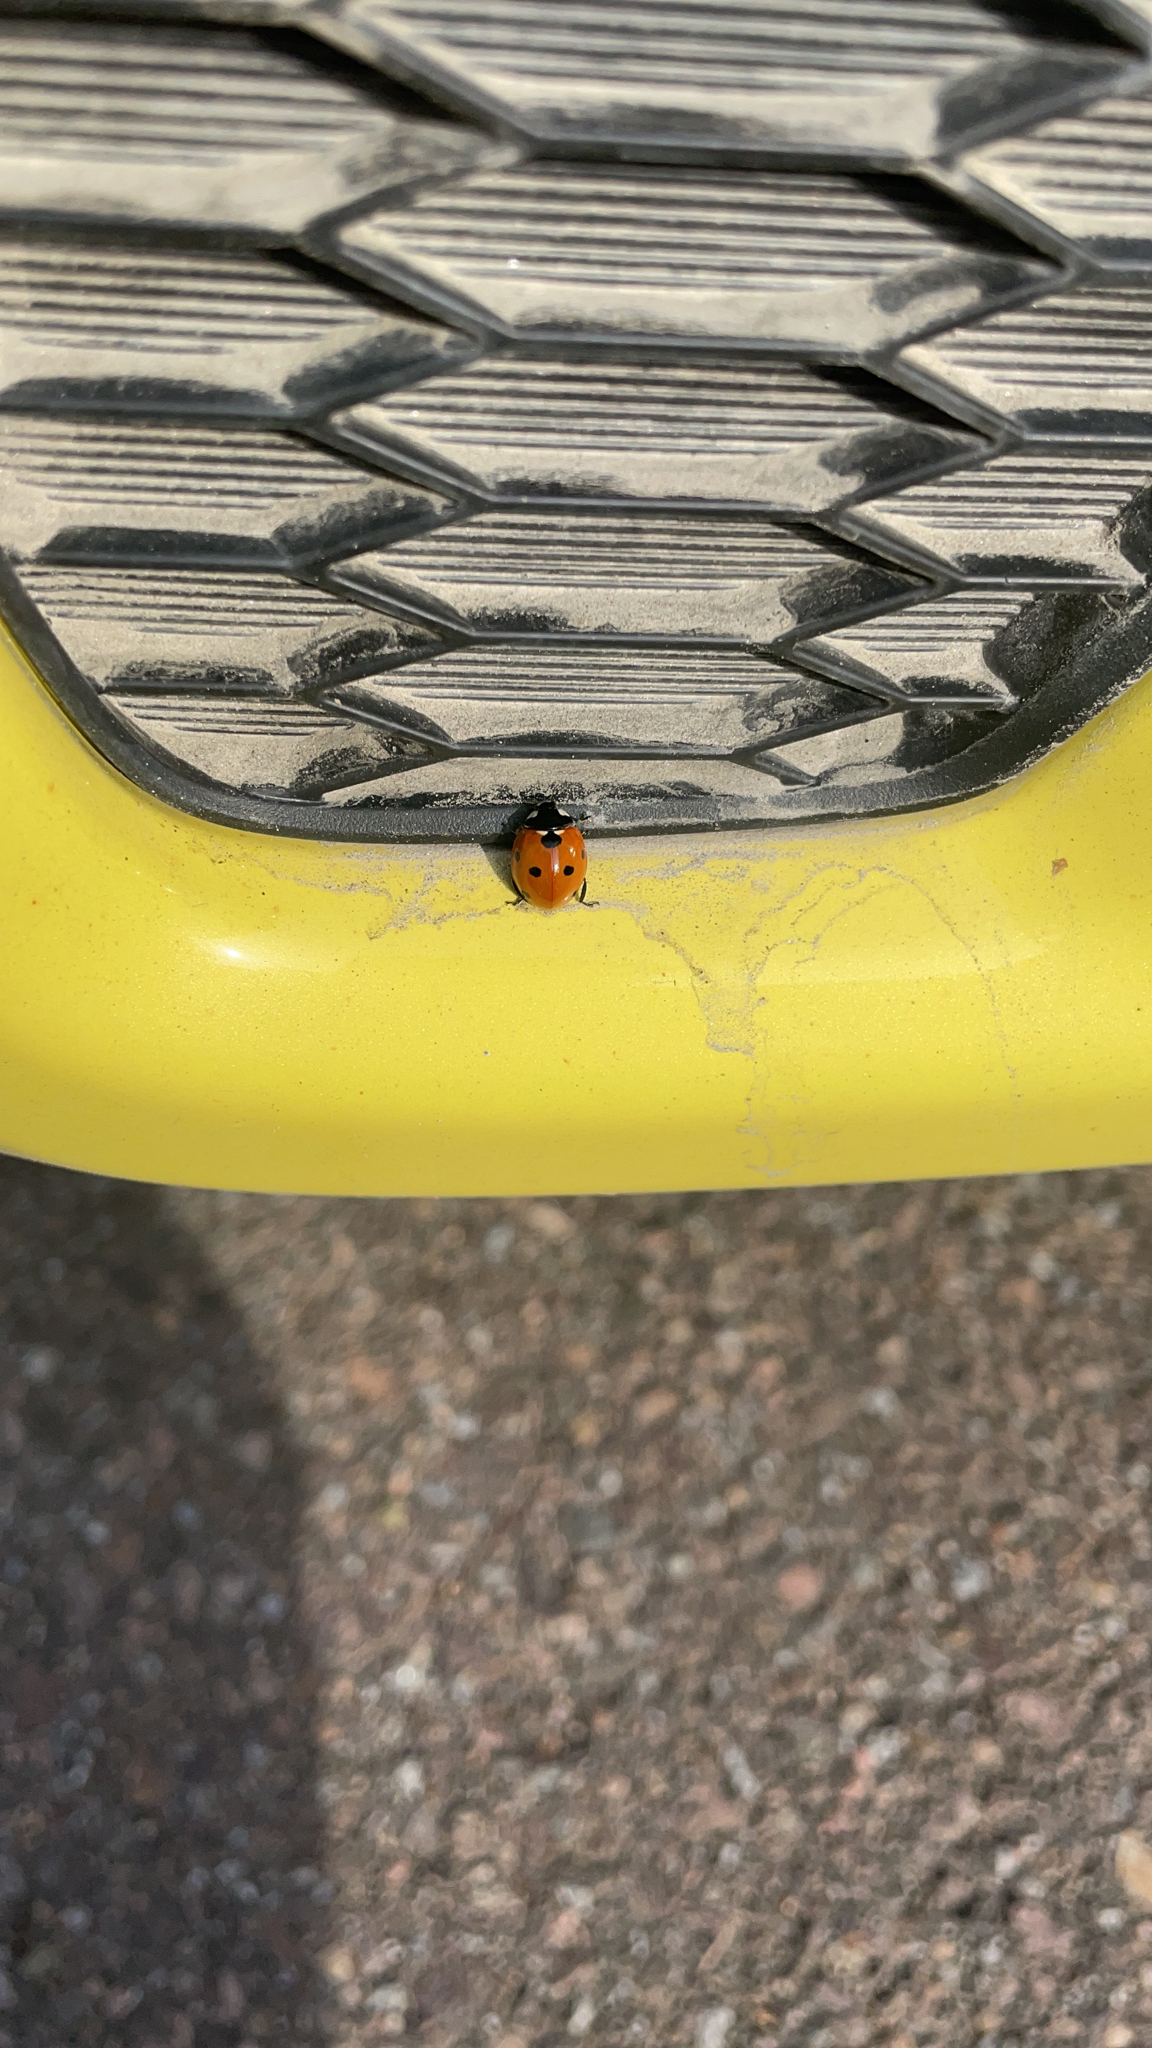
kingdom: Animalia
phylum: Arthropoda
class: Insecta
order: Coleoptera
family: Coccinellidae
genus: Coccinella
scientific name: Coccinella septempunctata
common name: Sevenspotted lady beetle
